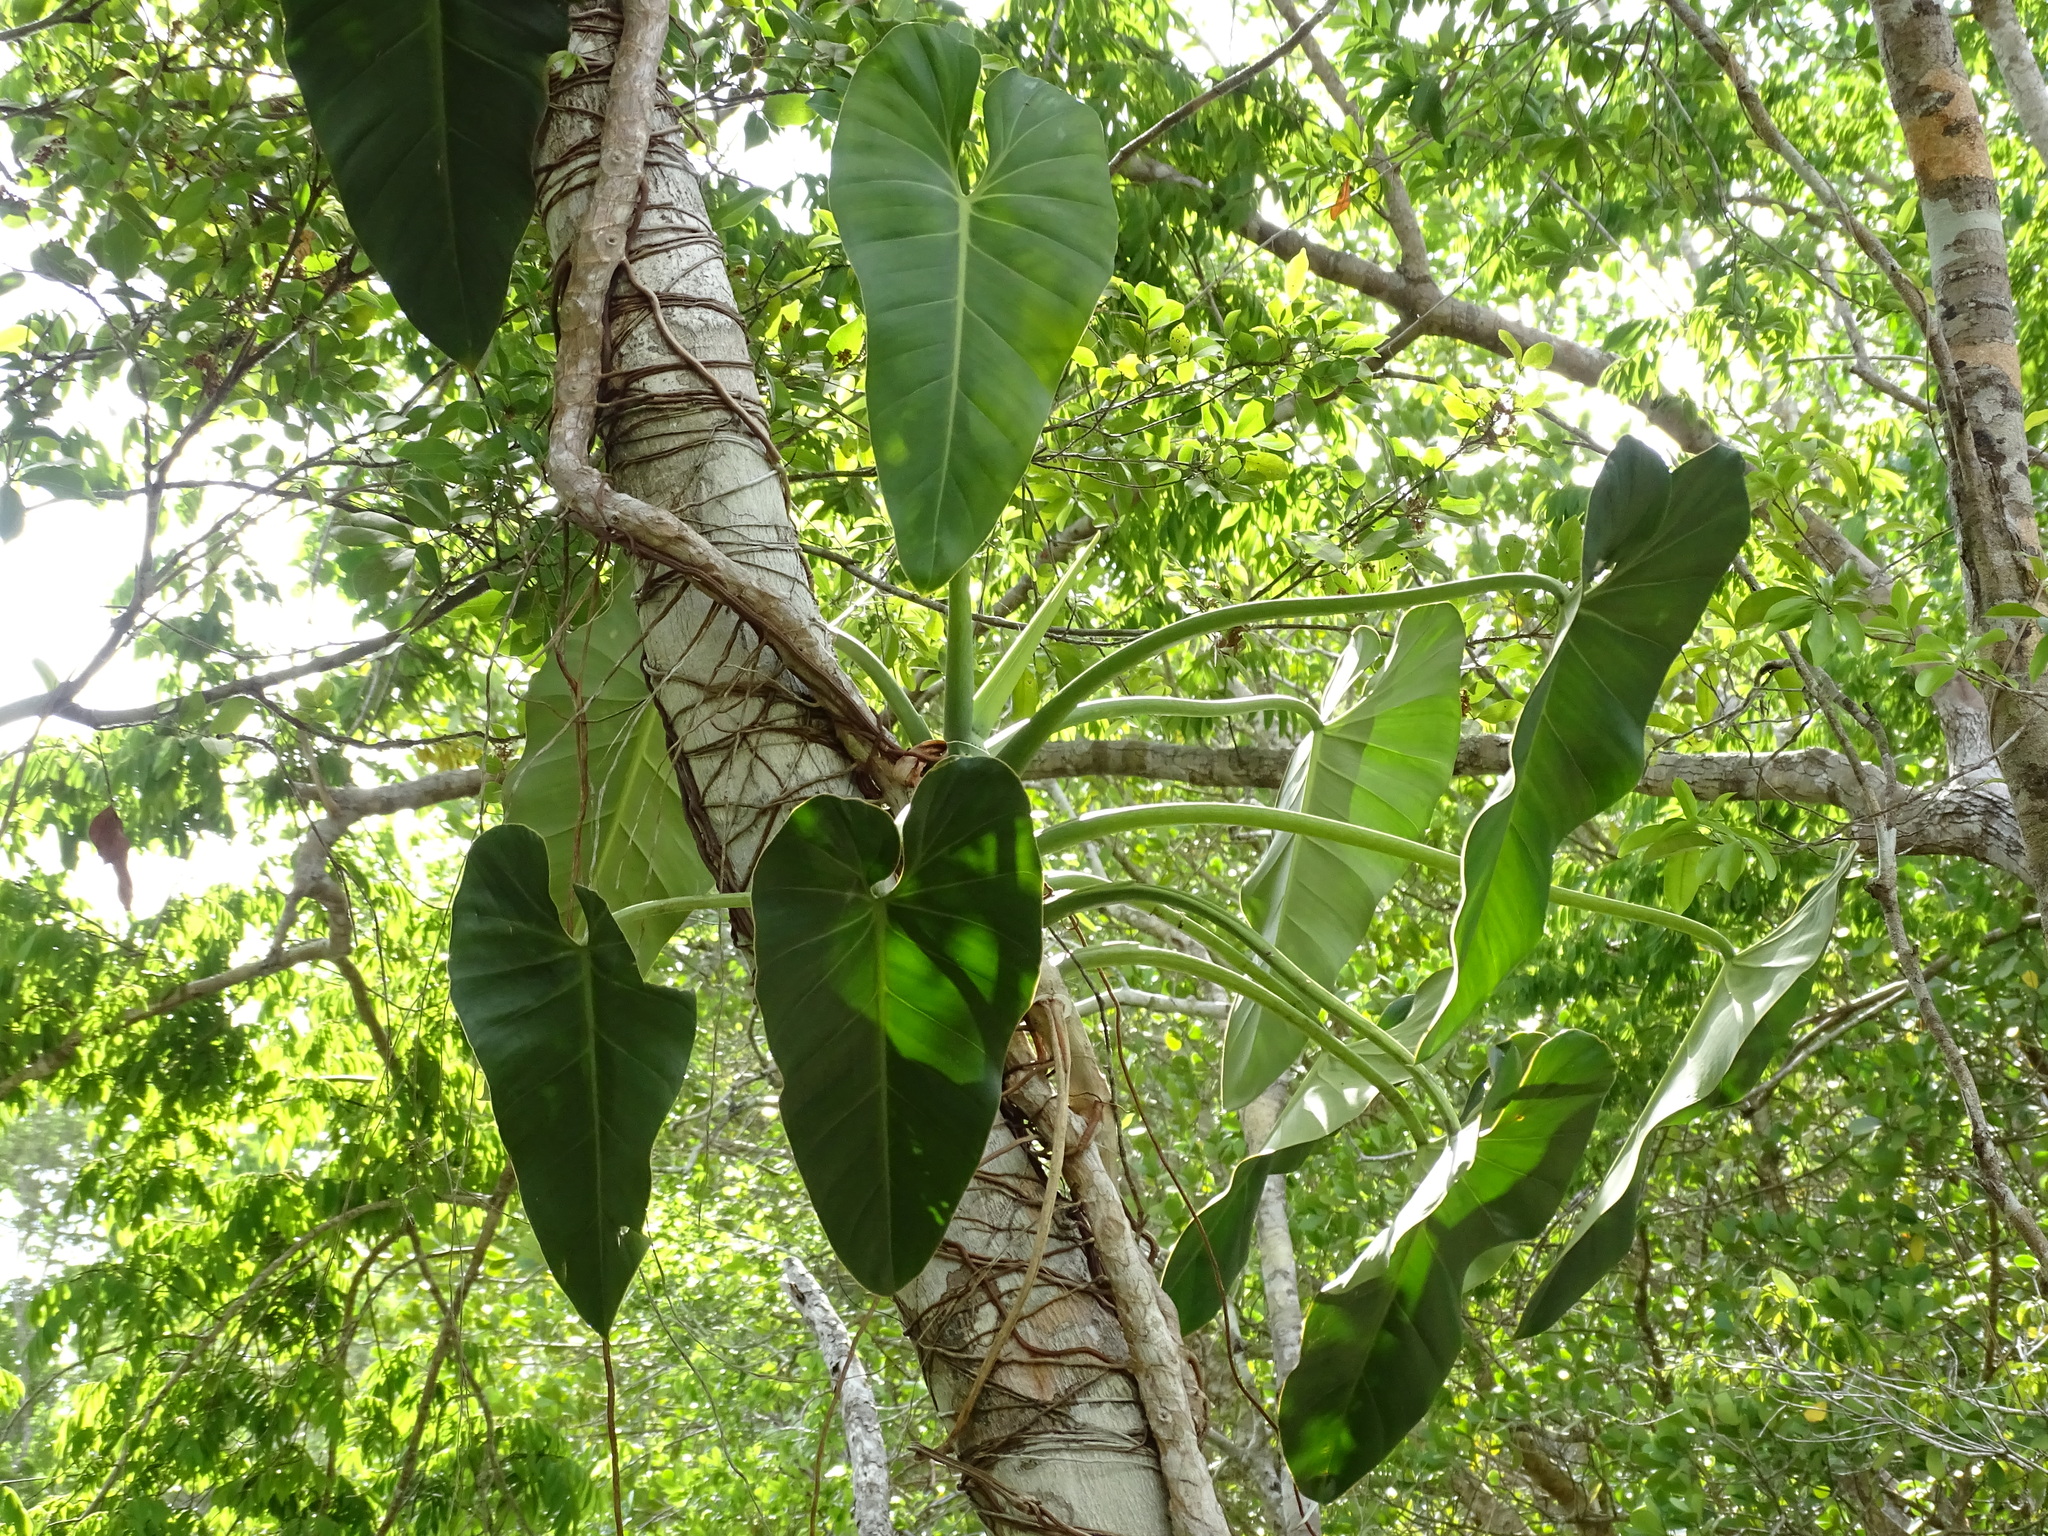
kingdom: Plantae
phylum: Tracheophyta
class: Liliopsida
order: Alismatales
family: Araceae
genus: Philodendron
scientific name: Philodendron smithii
